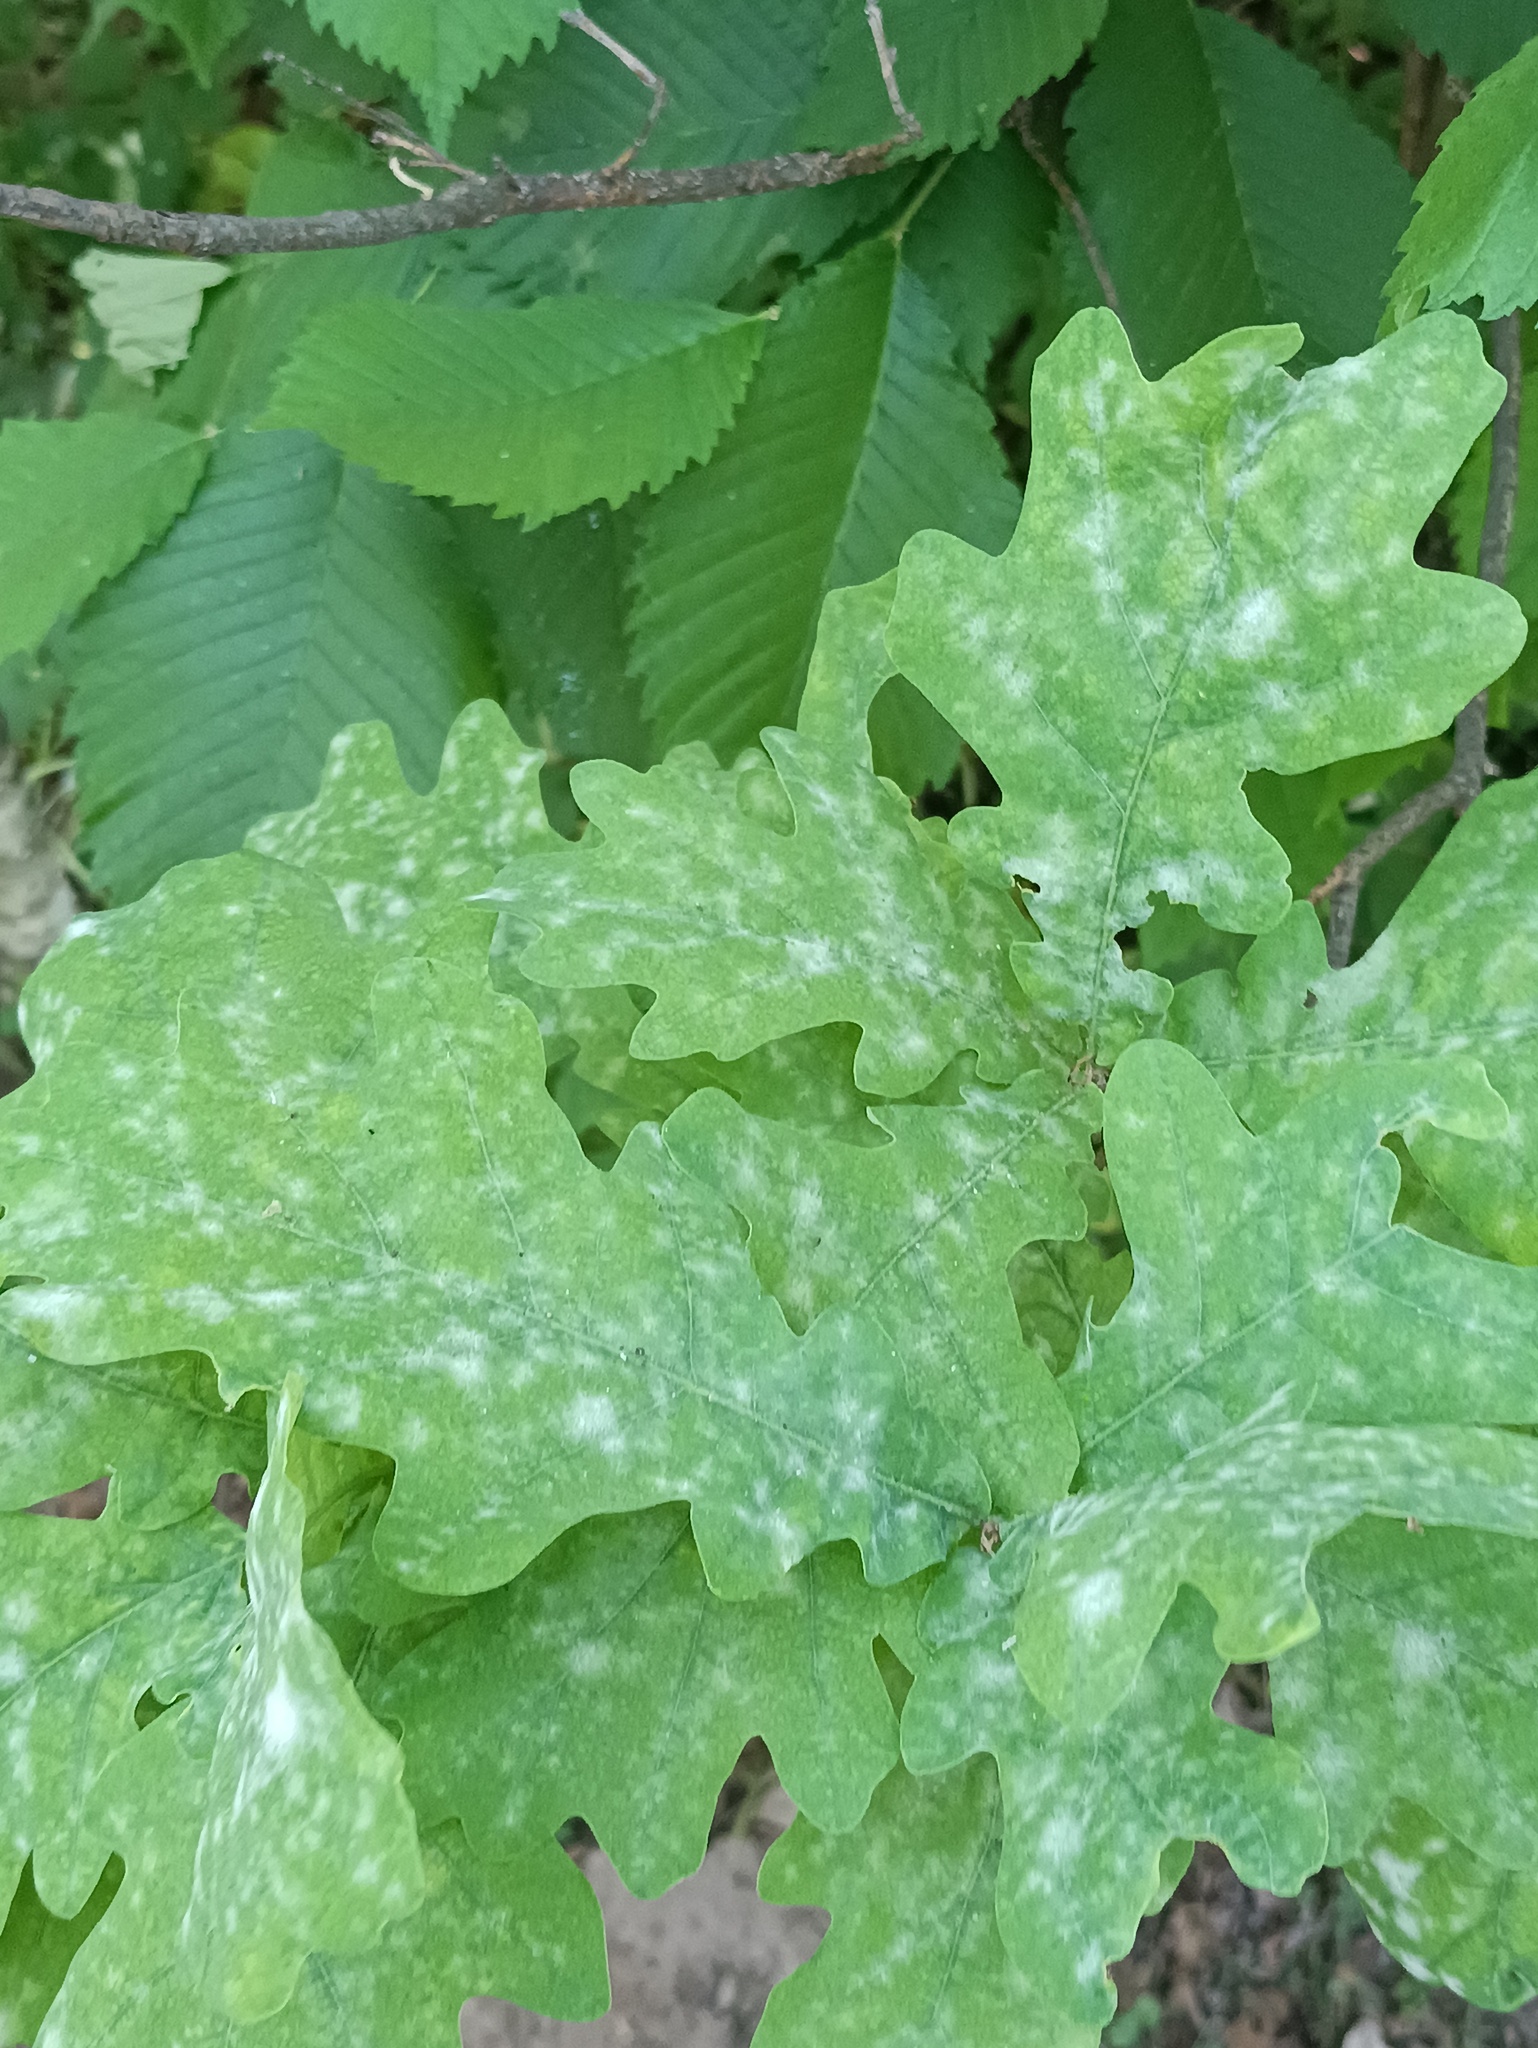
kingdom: Plantae
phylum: Tracheophyta
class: Magnoliopsida
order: Fagales
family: Fagaceae
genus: Quercus
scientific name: Quercus robur
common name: Pedunculate oak
